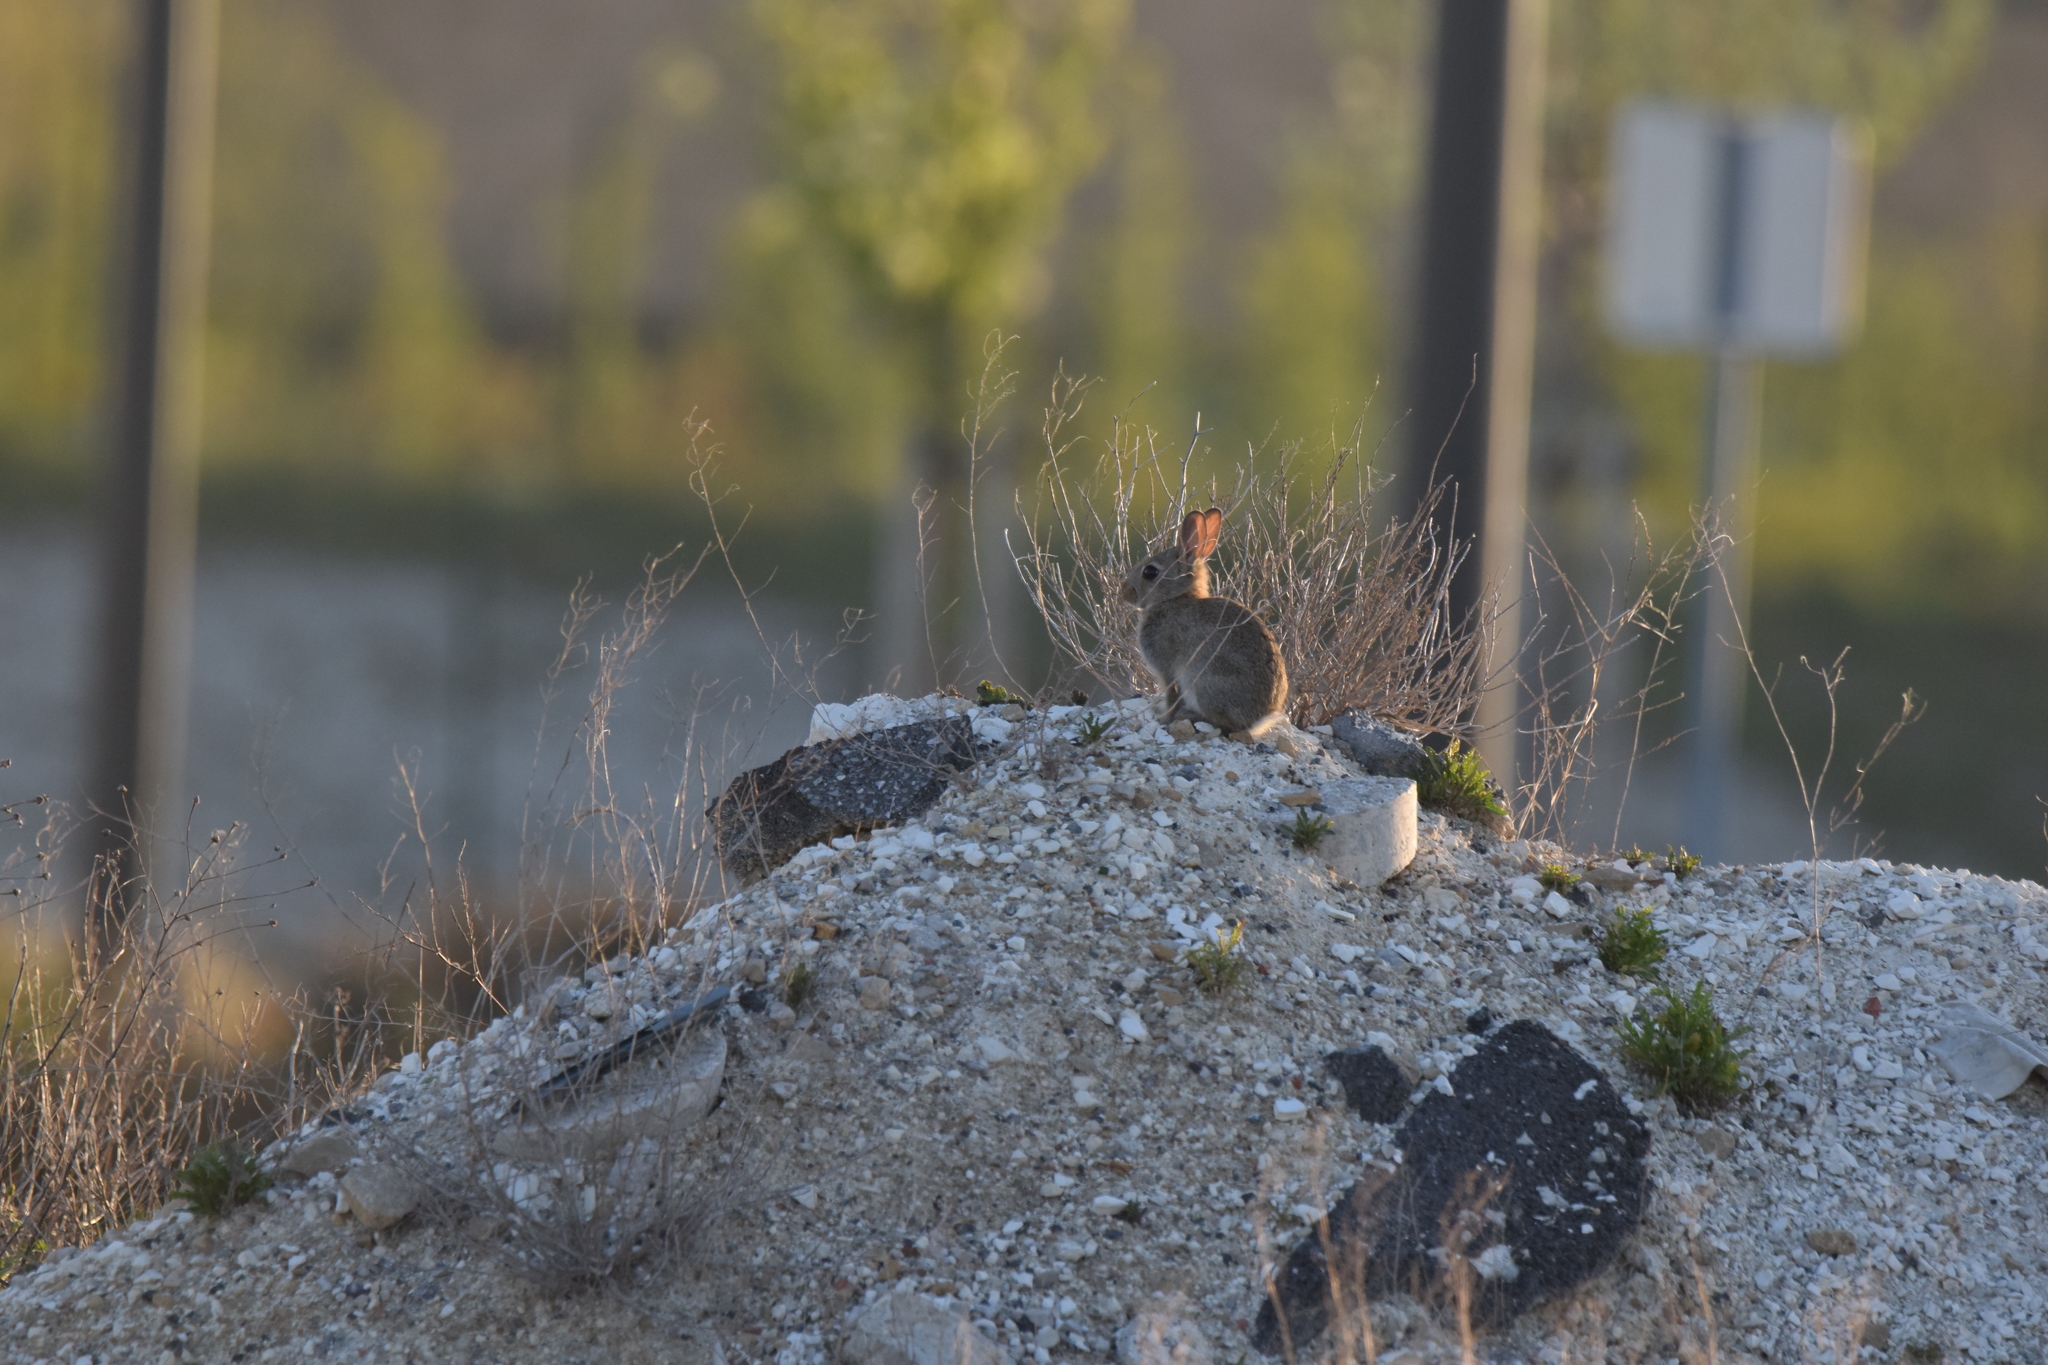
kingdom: Animalia
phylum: Chordata
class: Mammalia
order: Lagomorpha
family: Leporidae
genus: Oryctolagus
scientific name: Oryctolagus cuniculus
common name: European rabbit
